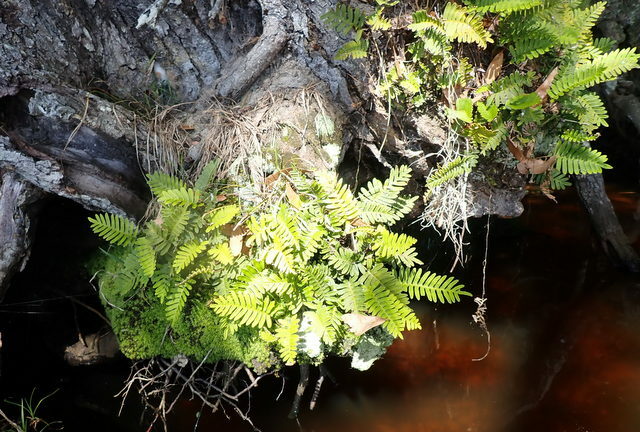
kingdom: Plantae
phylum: Tracheophyta
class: Polypodiopsida
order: Polypodiales
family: Polypodiaceae
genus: Pleopeltis
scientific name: Pleopeltis michauxiana
